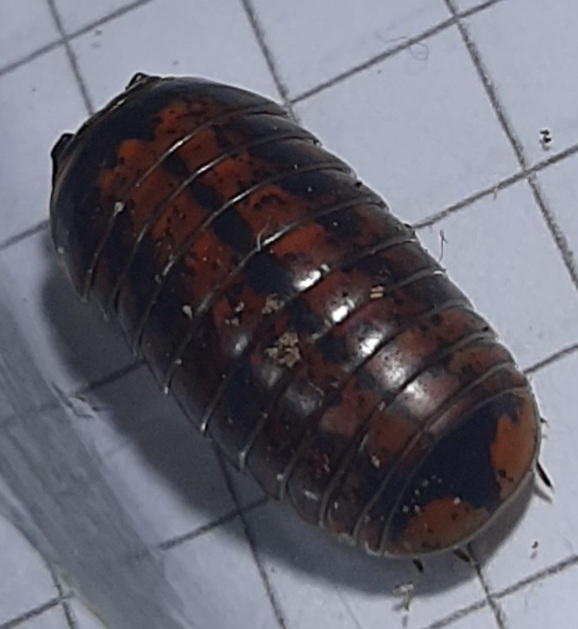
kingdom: Animalia
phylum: Arthropoda
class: Diplopoda
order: Glomerida
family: Glomeridae
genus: Glomeris
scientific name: Glomeris klugii
